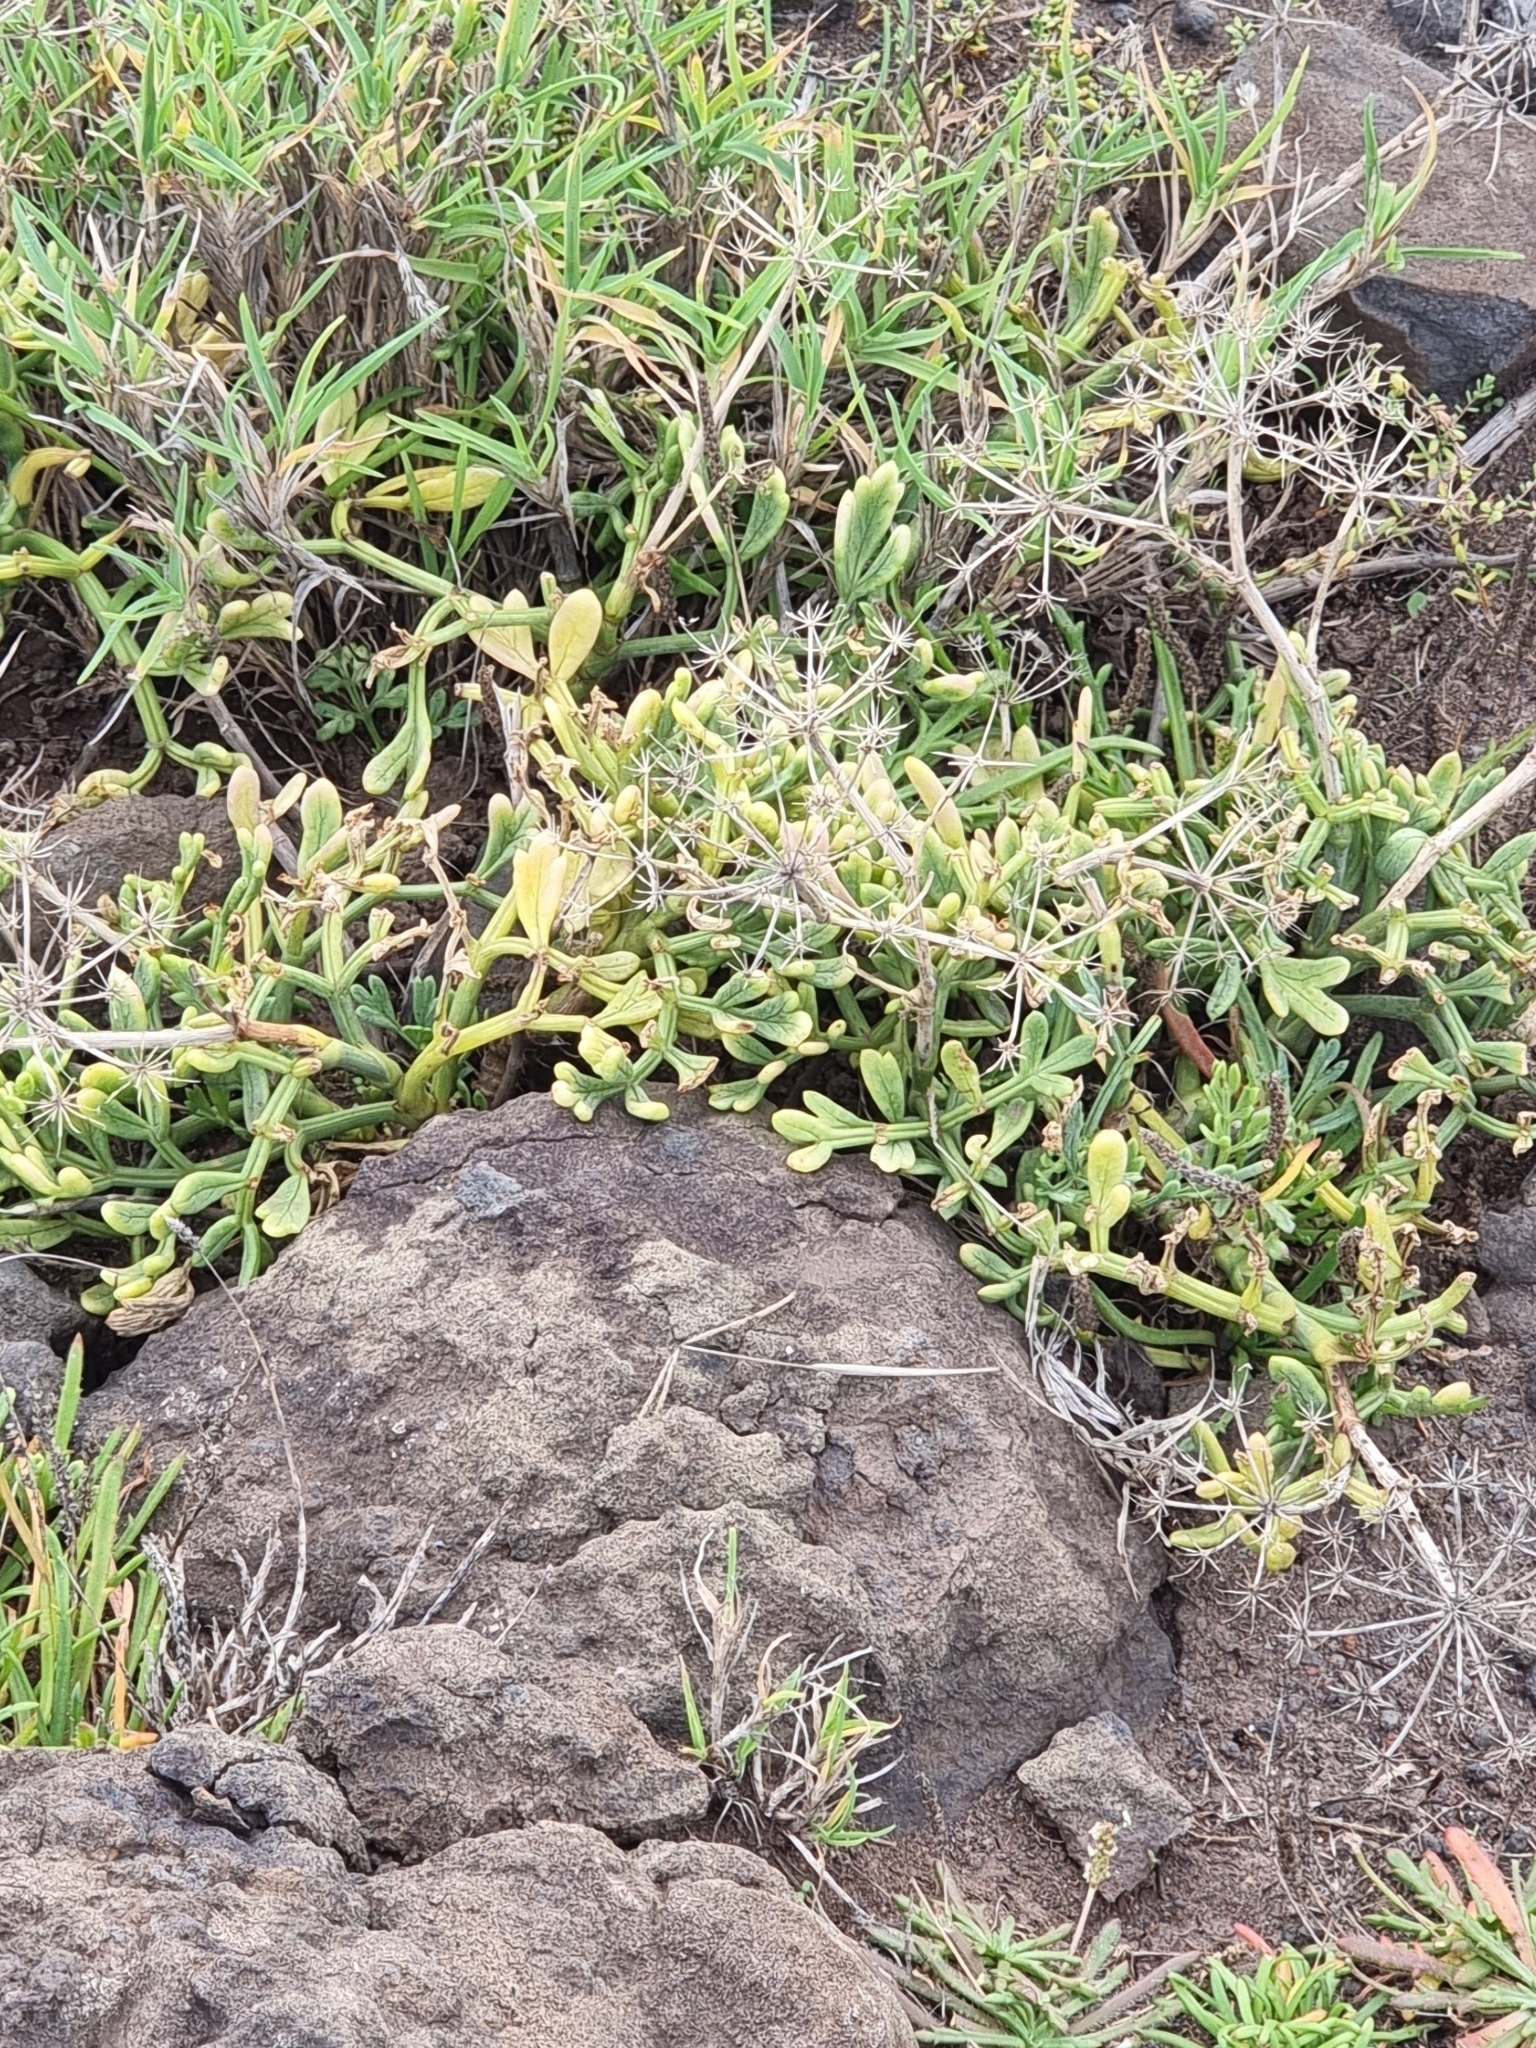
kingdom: Plantae
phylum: Tracheophyta
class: Magnoliopsida
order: Apiales
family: Apiaceae
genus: Crithmum
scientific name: Crithmum maritimum
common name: Rock samphire
